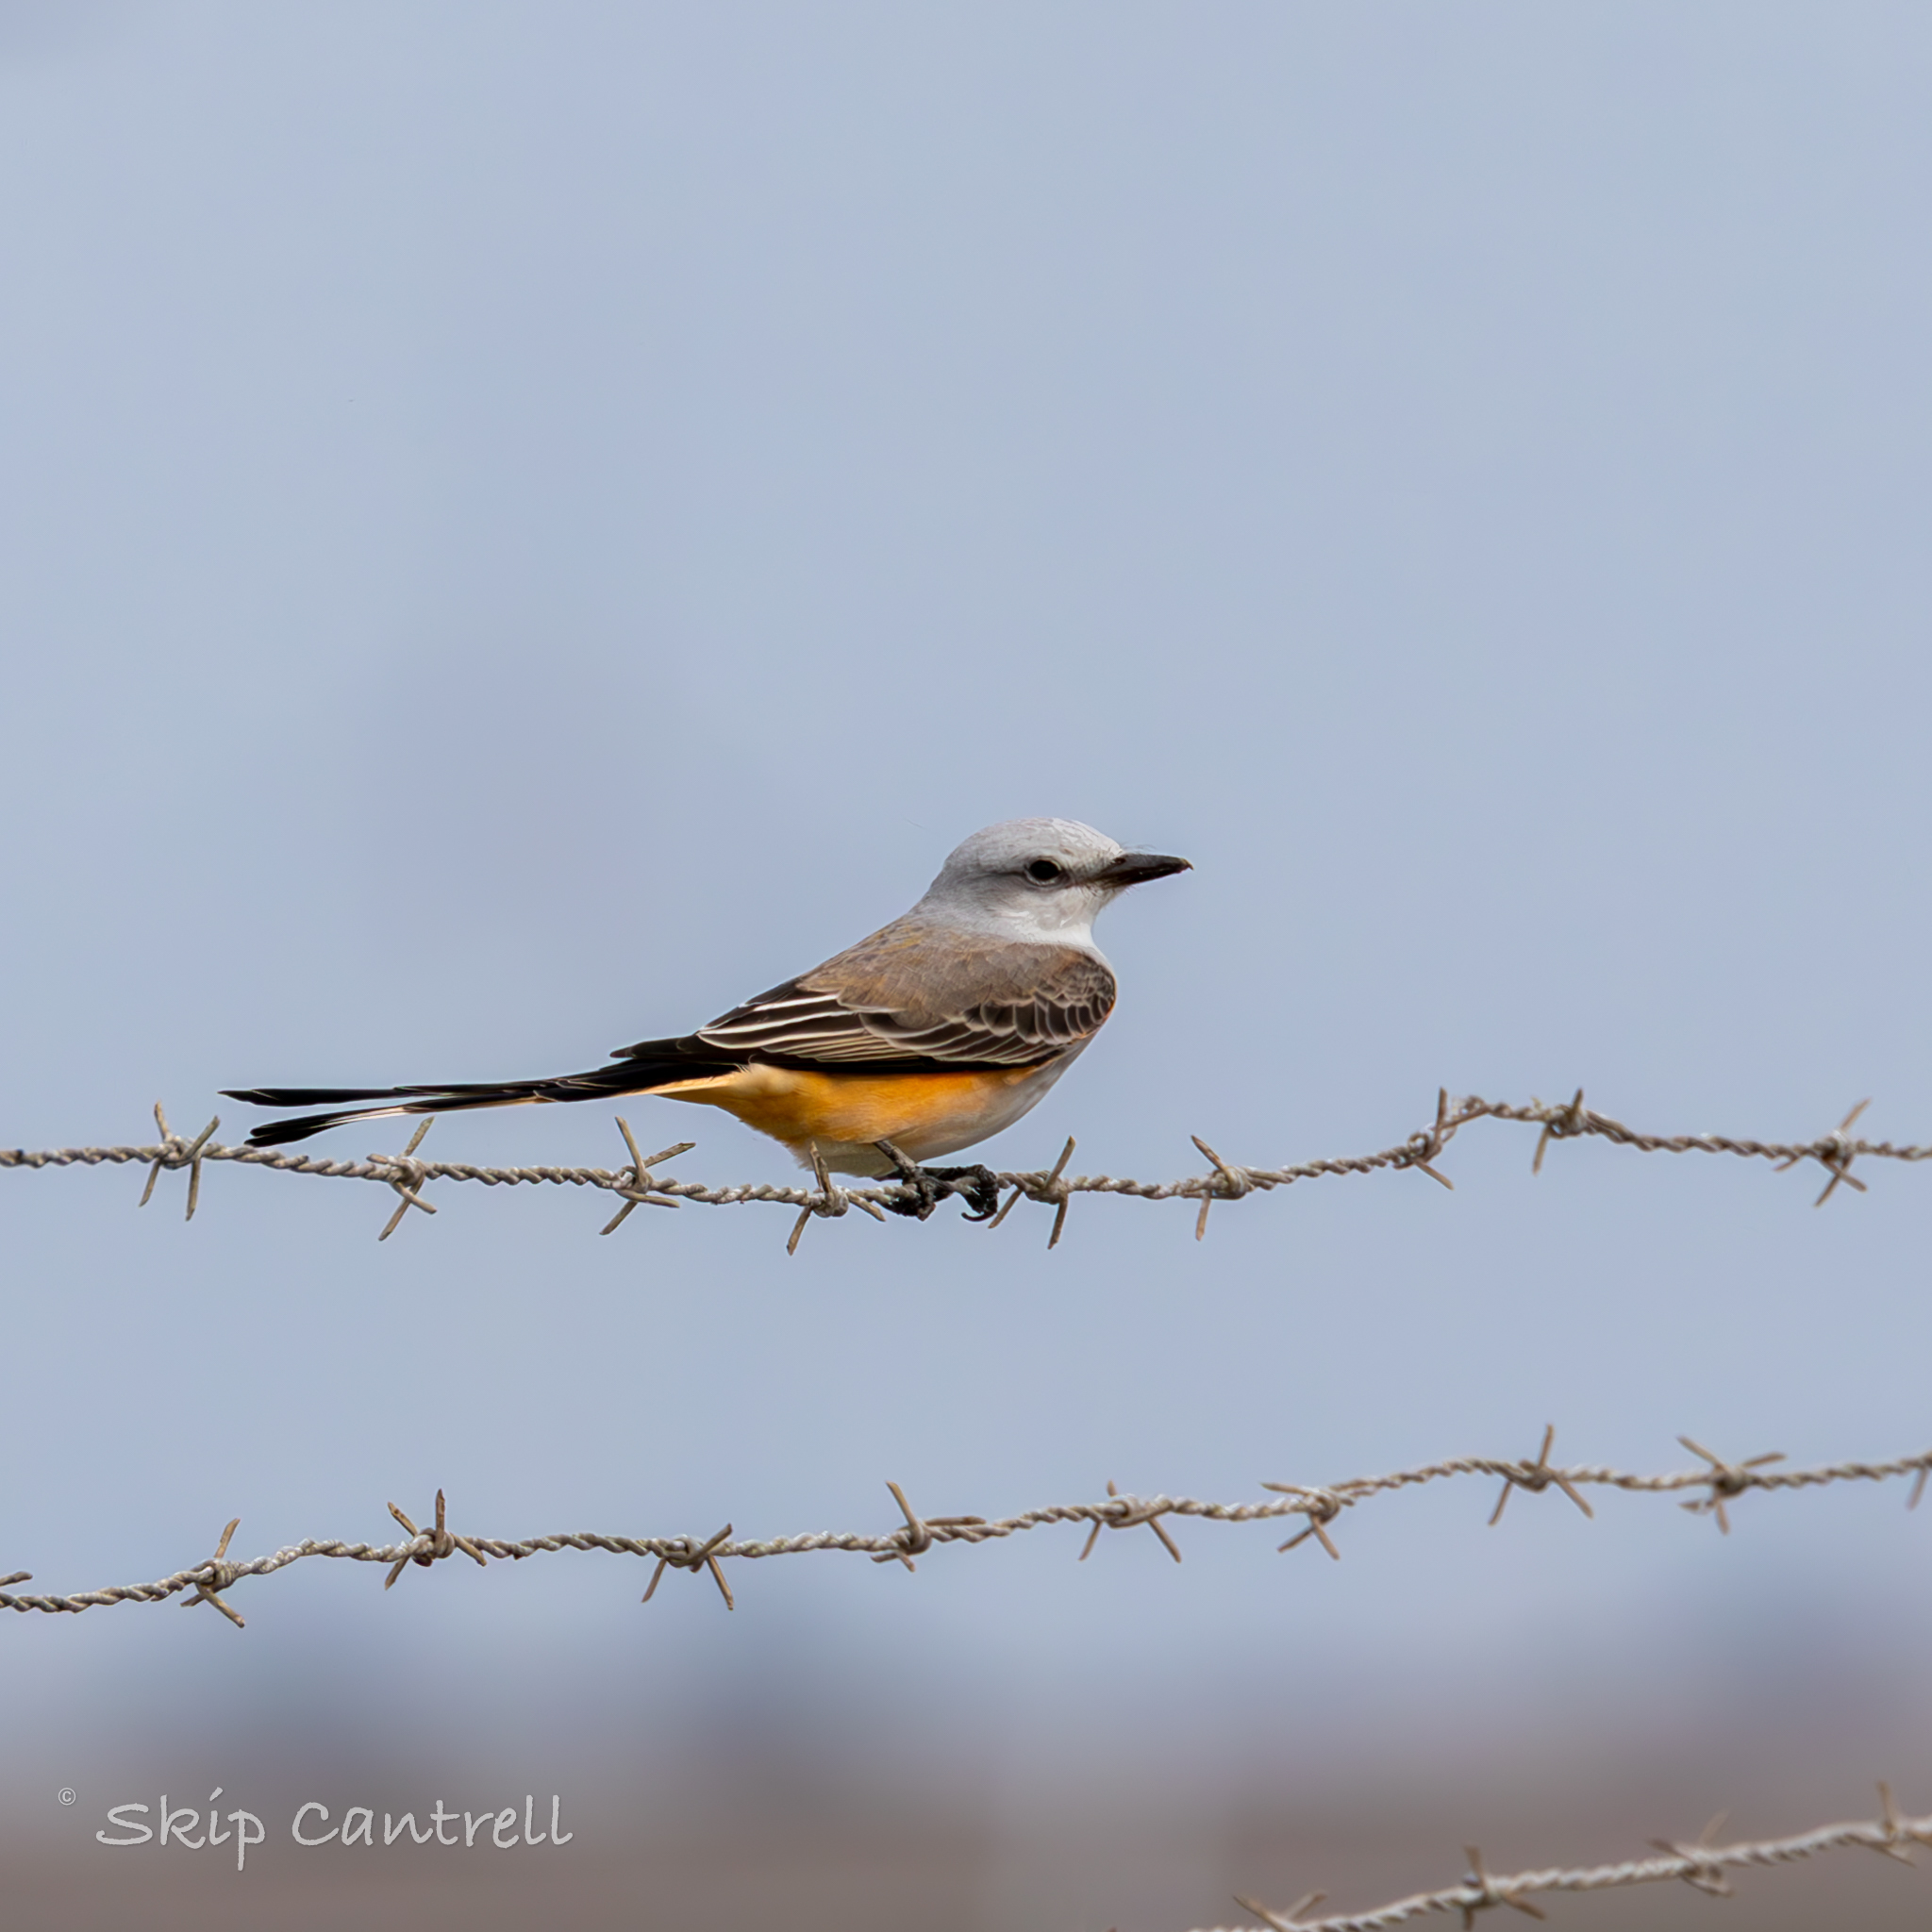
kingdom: Animalia
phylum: Chordata
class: Aves
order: Passeriformes
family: Tyrannidae
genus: Tyrannus
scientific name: Tyrannus forficatus
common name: Scissor-tailed flycatcher
